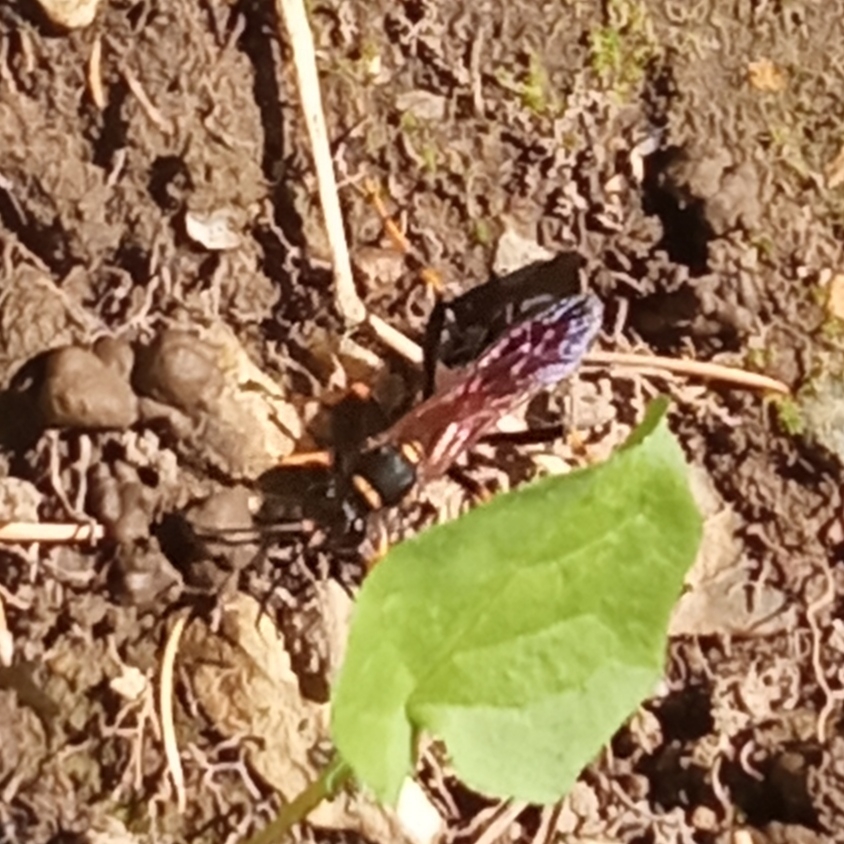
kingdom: Animalia
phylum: Arthropoda
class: Insecta
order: Hymenoptera
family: Sphecidae
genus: Sceliphron
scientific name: Sceliphron caementarium
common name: Mud dauber
